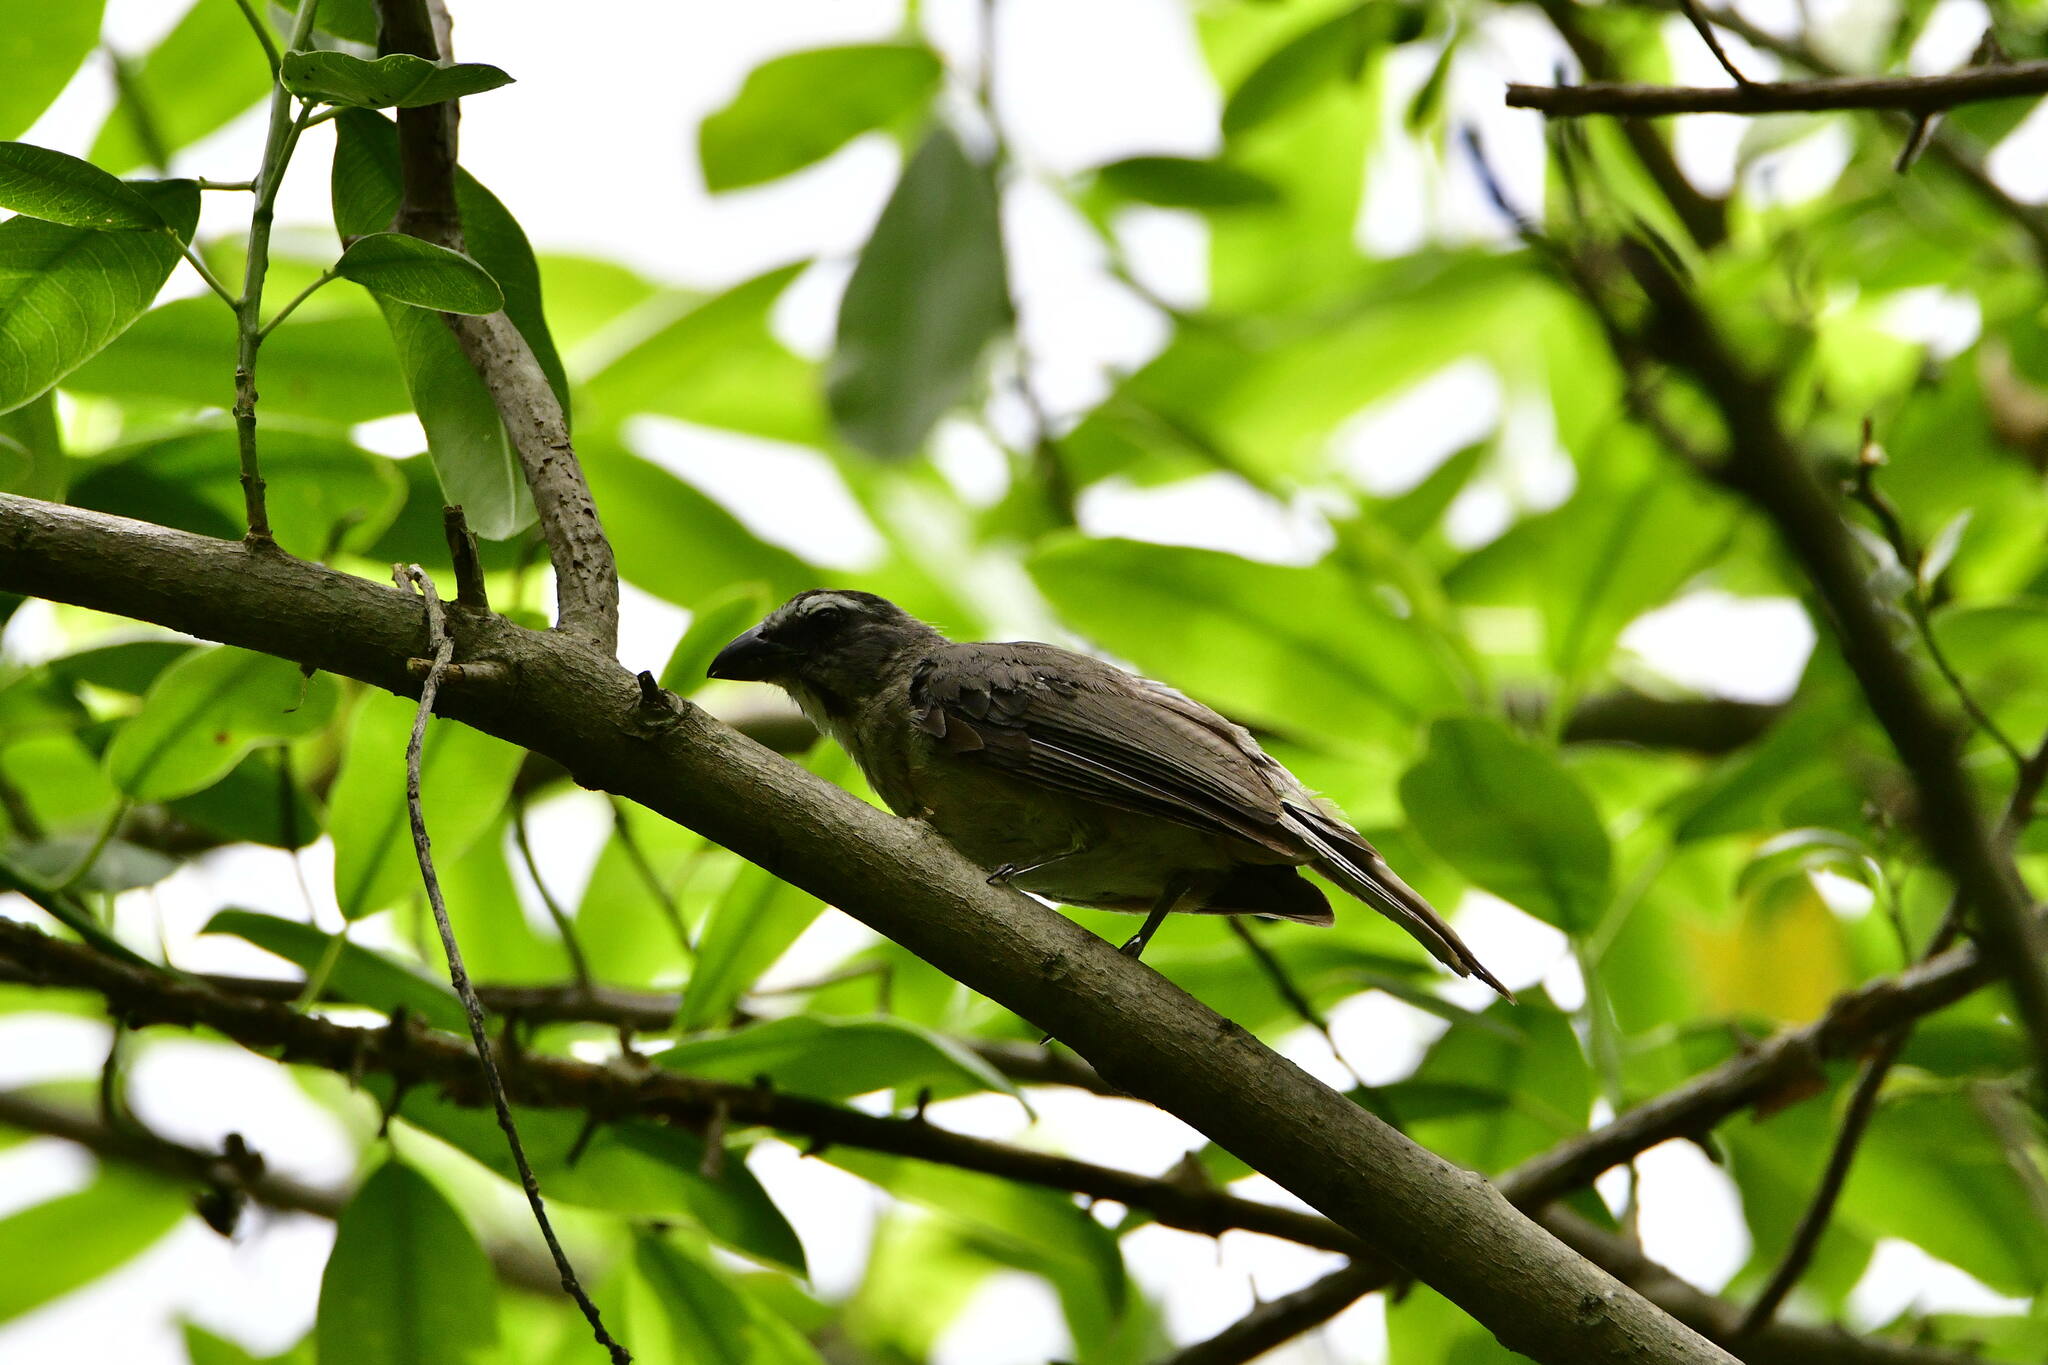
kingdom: Animalia
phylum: Chordata
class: Aves
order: Passeriformes
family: Thraupidae
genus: Saltator
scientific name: Saltator grandis
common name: Cinnamon-bellied saltator
